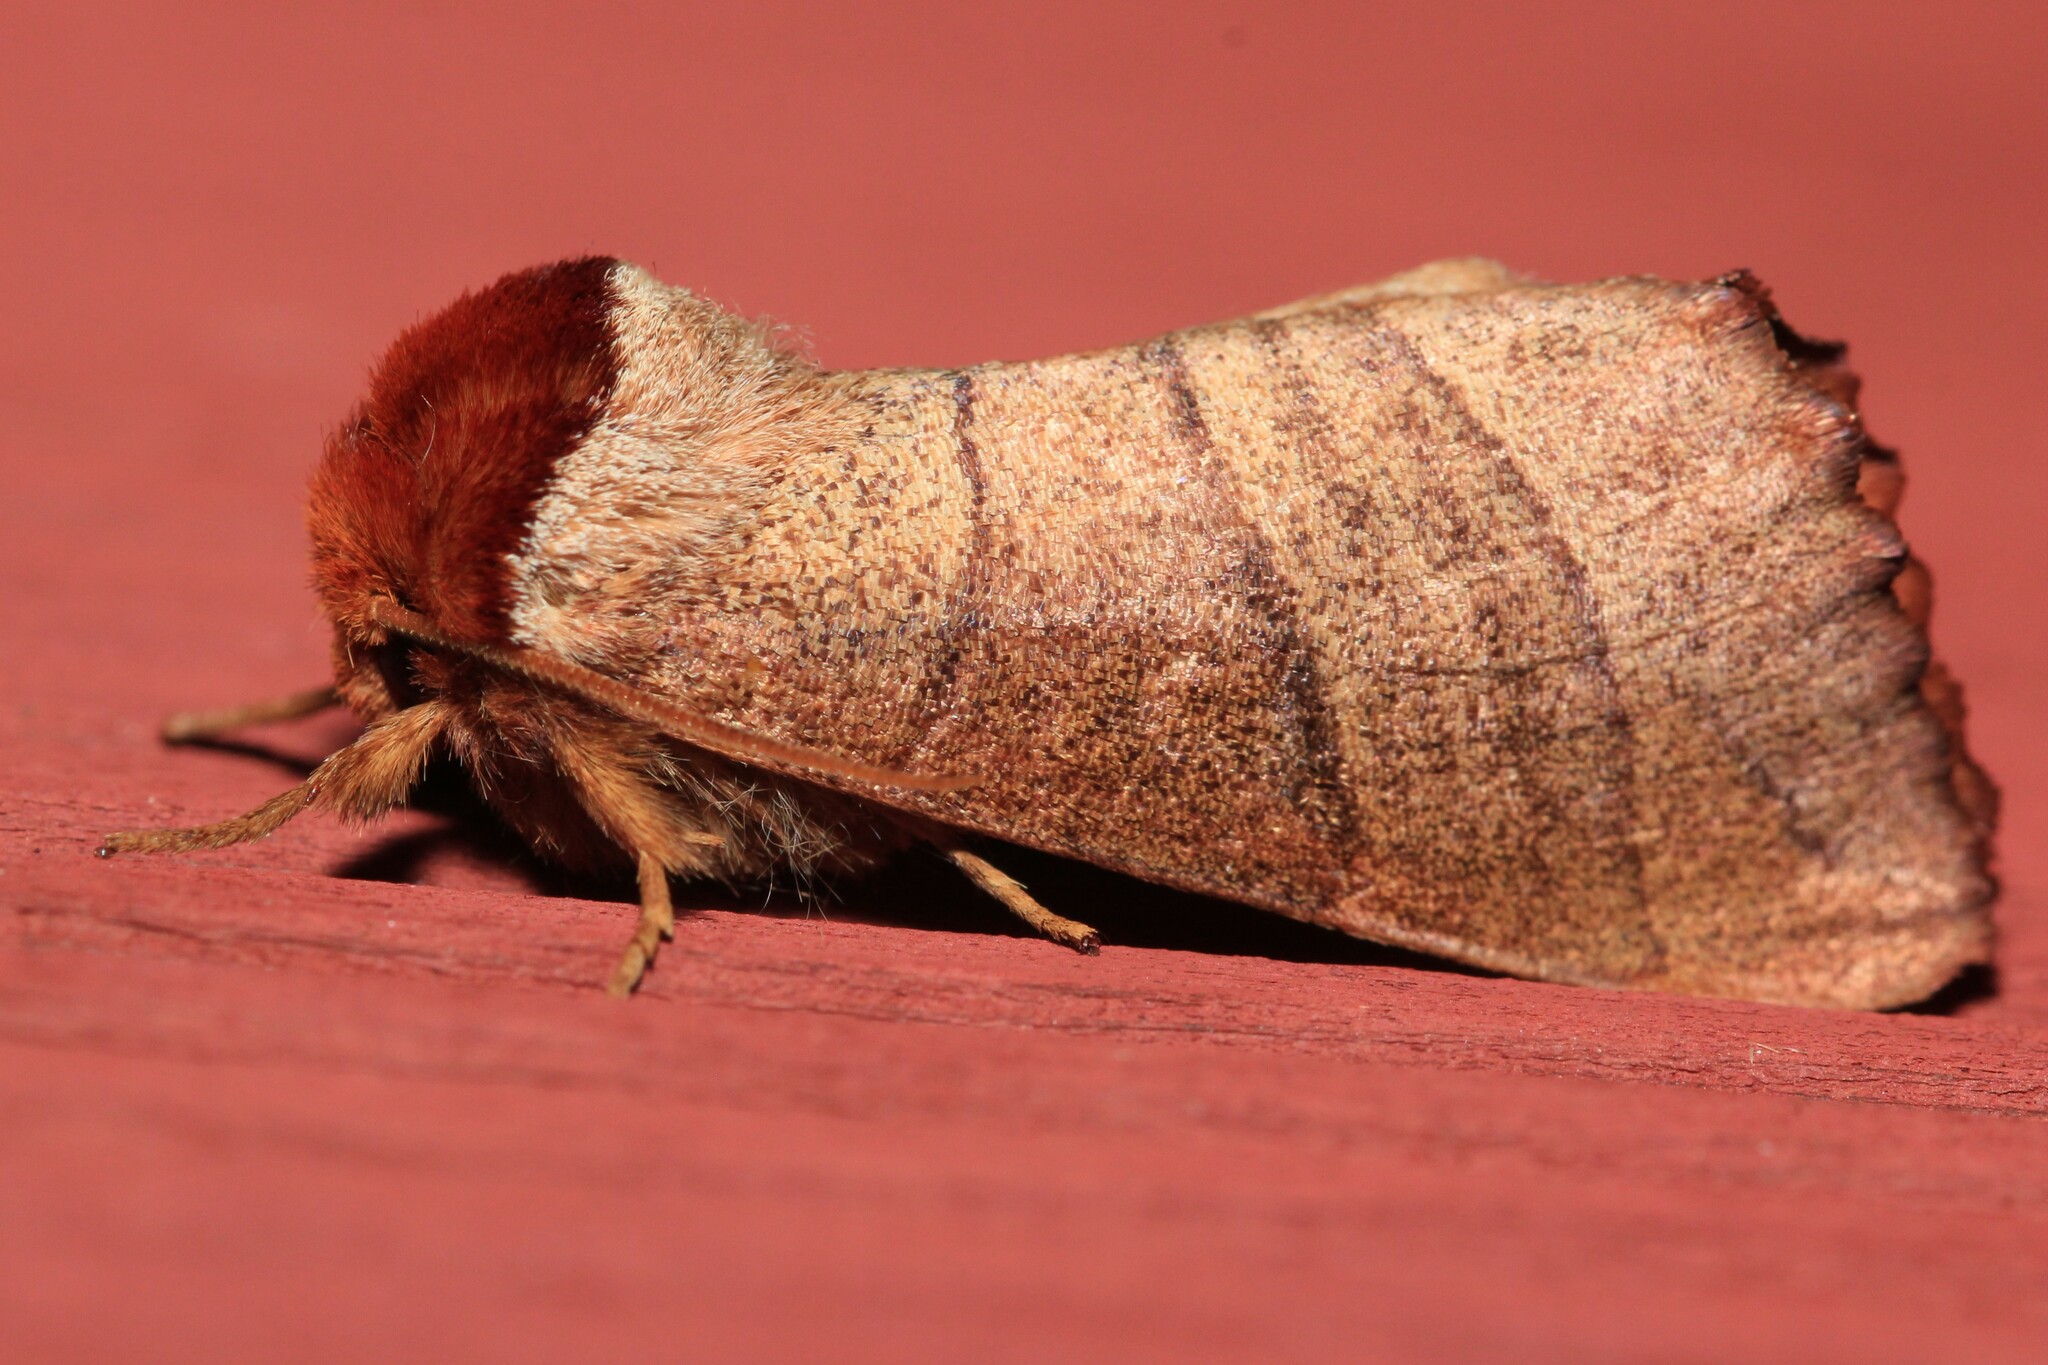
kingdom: Animalia
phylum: Arthropoda
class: Insecta
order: Lepidoptera
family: Notodontidae
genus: Datana
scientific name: Datana ministra
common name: Yellow-necked caterpillar moth
